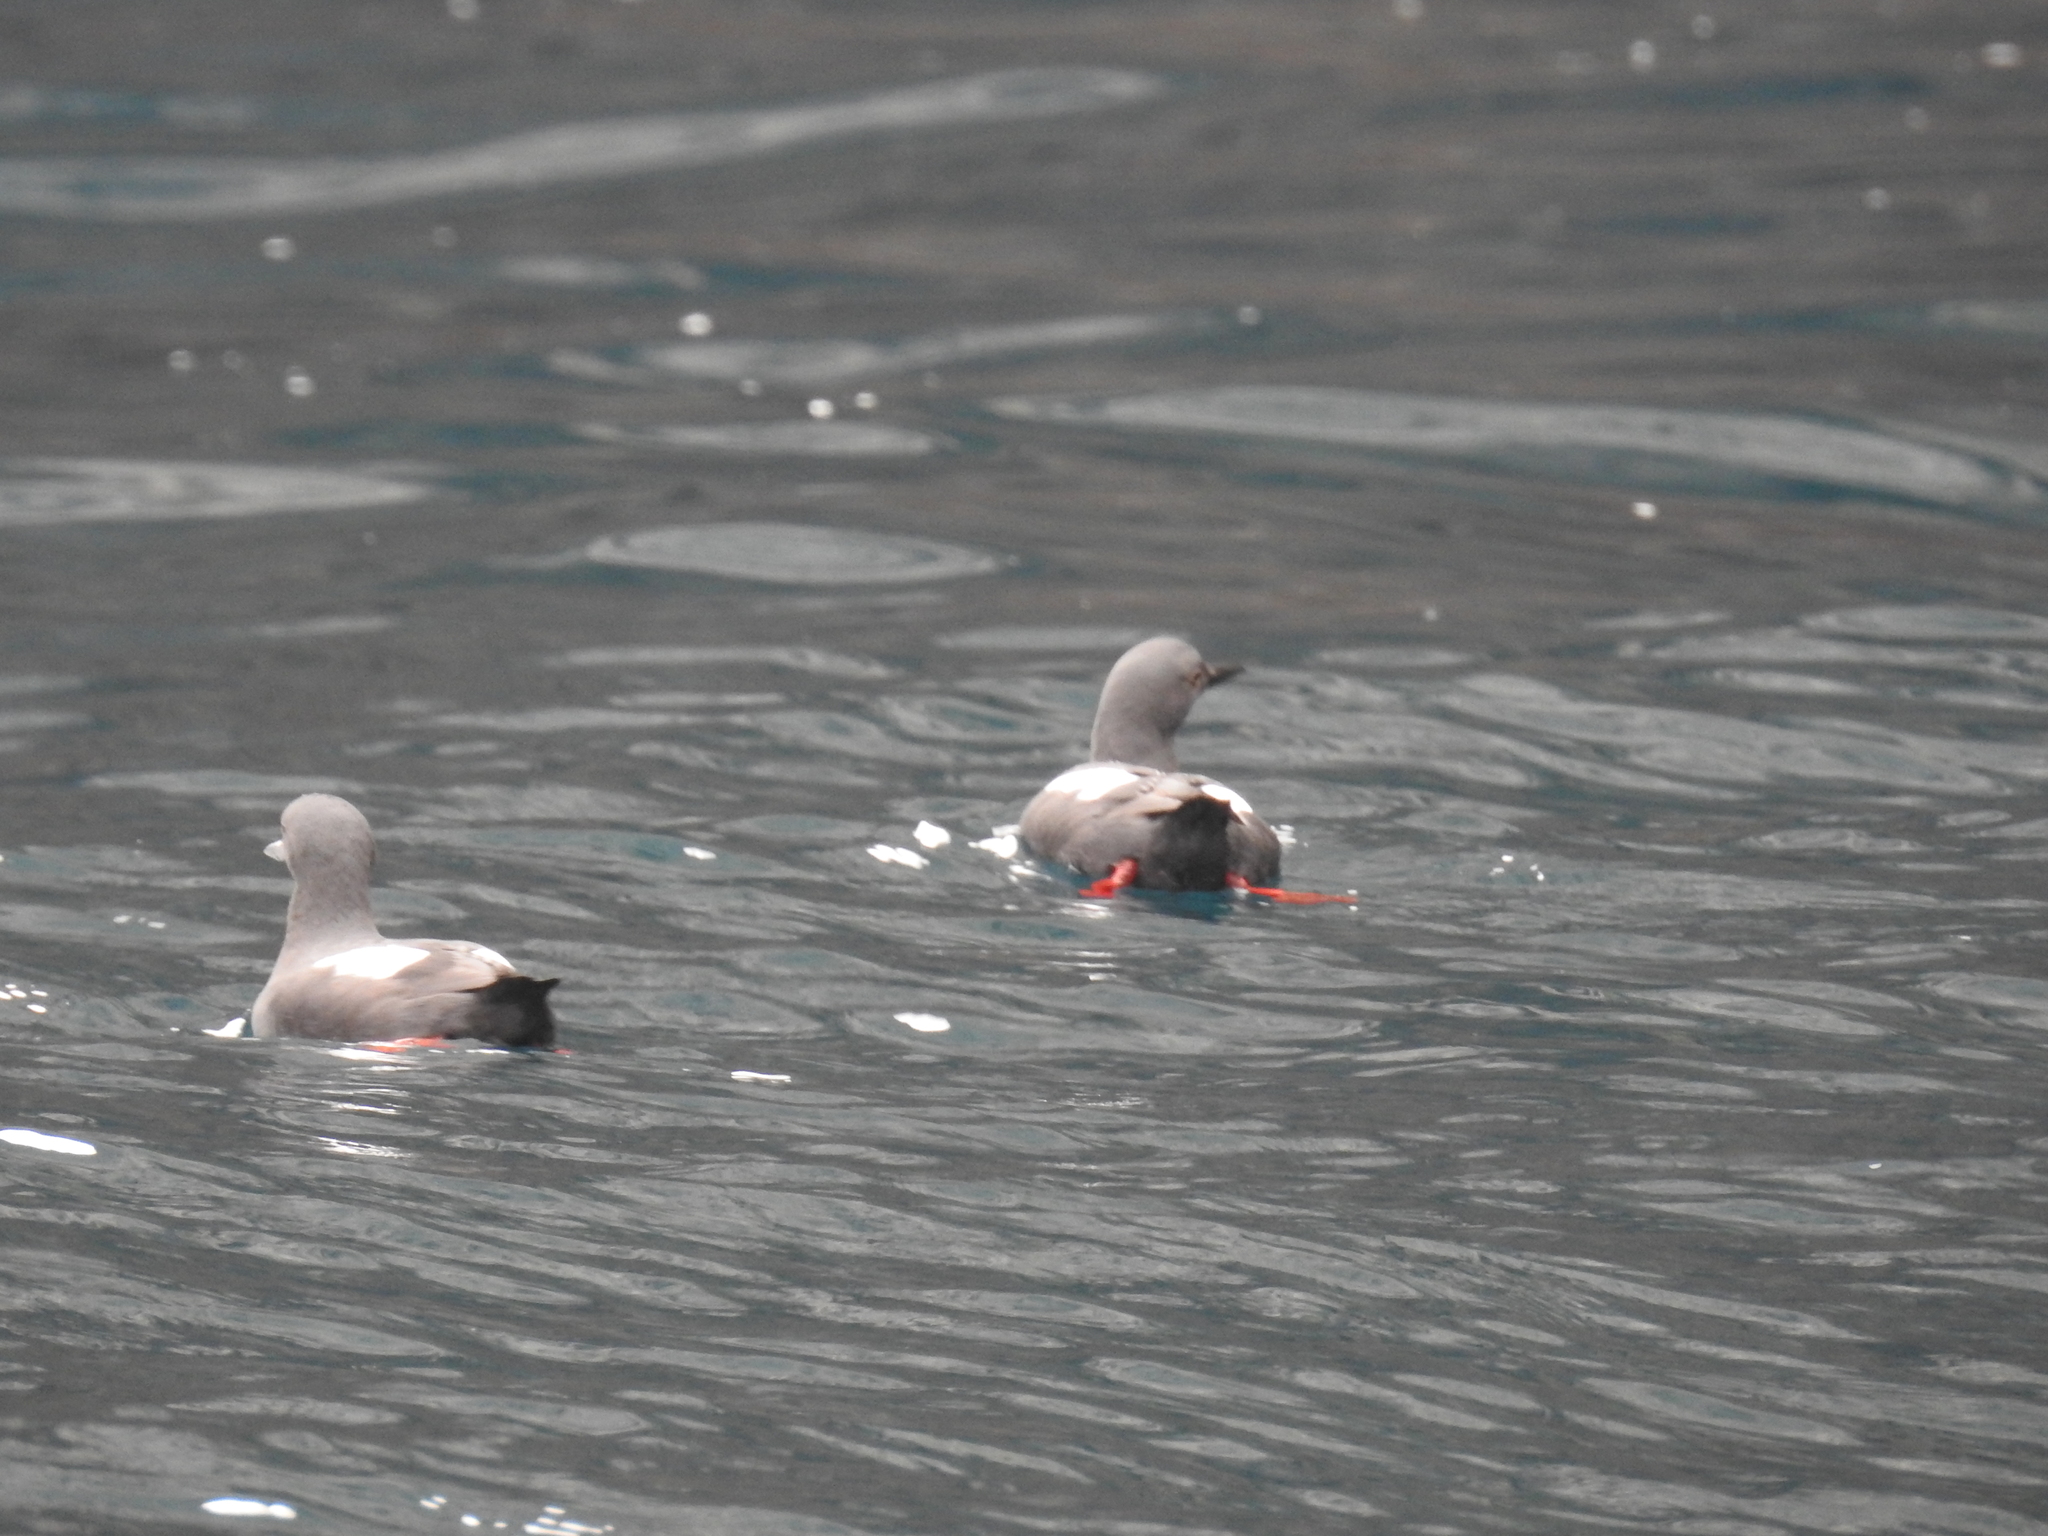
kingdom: Animalia
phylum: Chordata
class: Aves
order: Charadriiformes
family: Alcidae
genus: Cepphus
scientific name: Cepphus columba
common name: Pigeon guillemot
